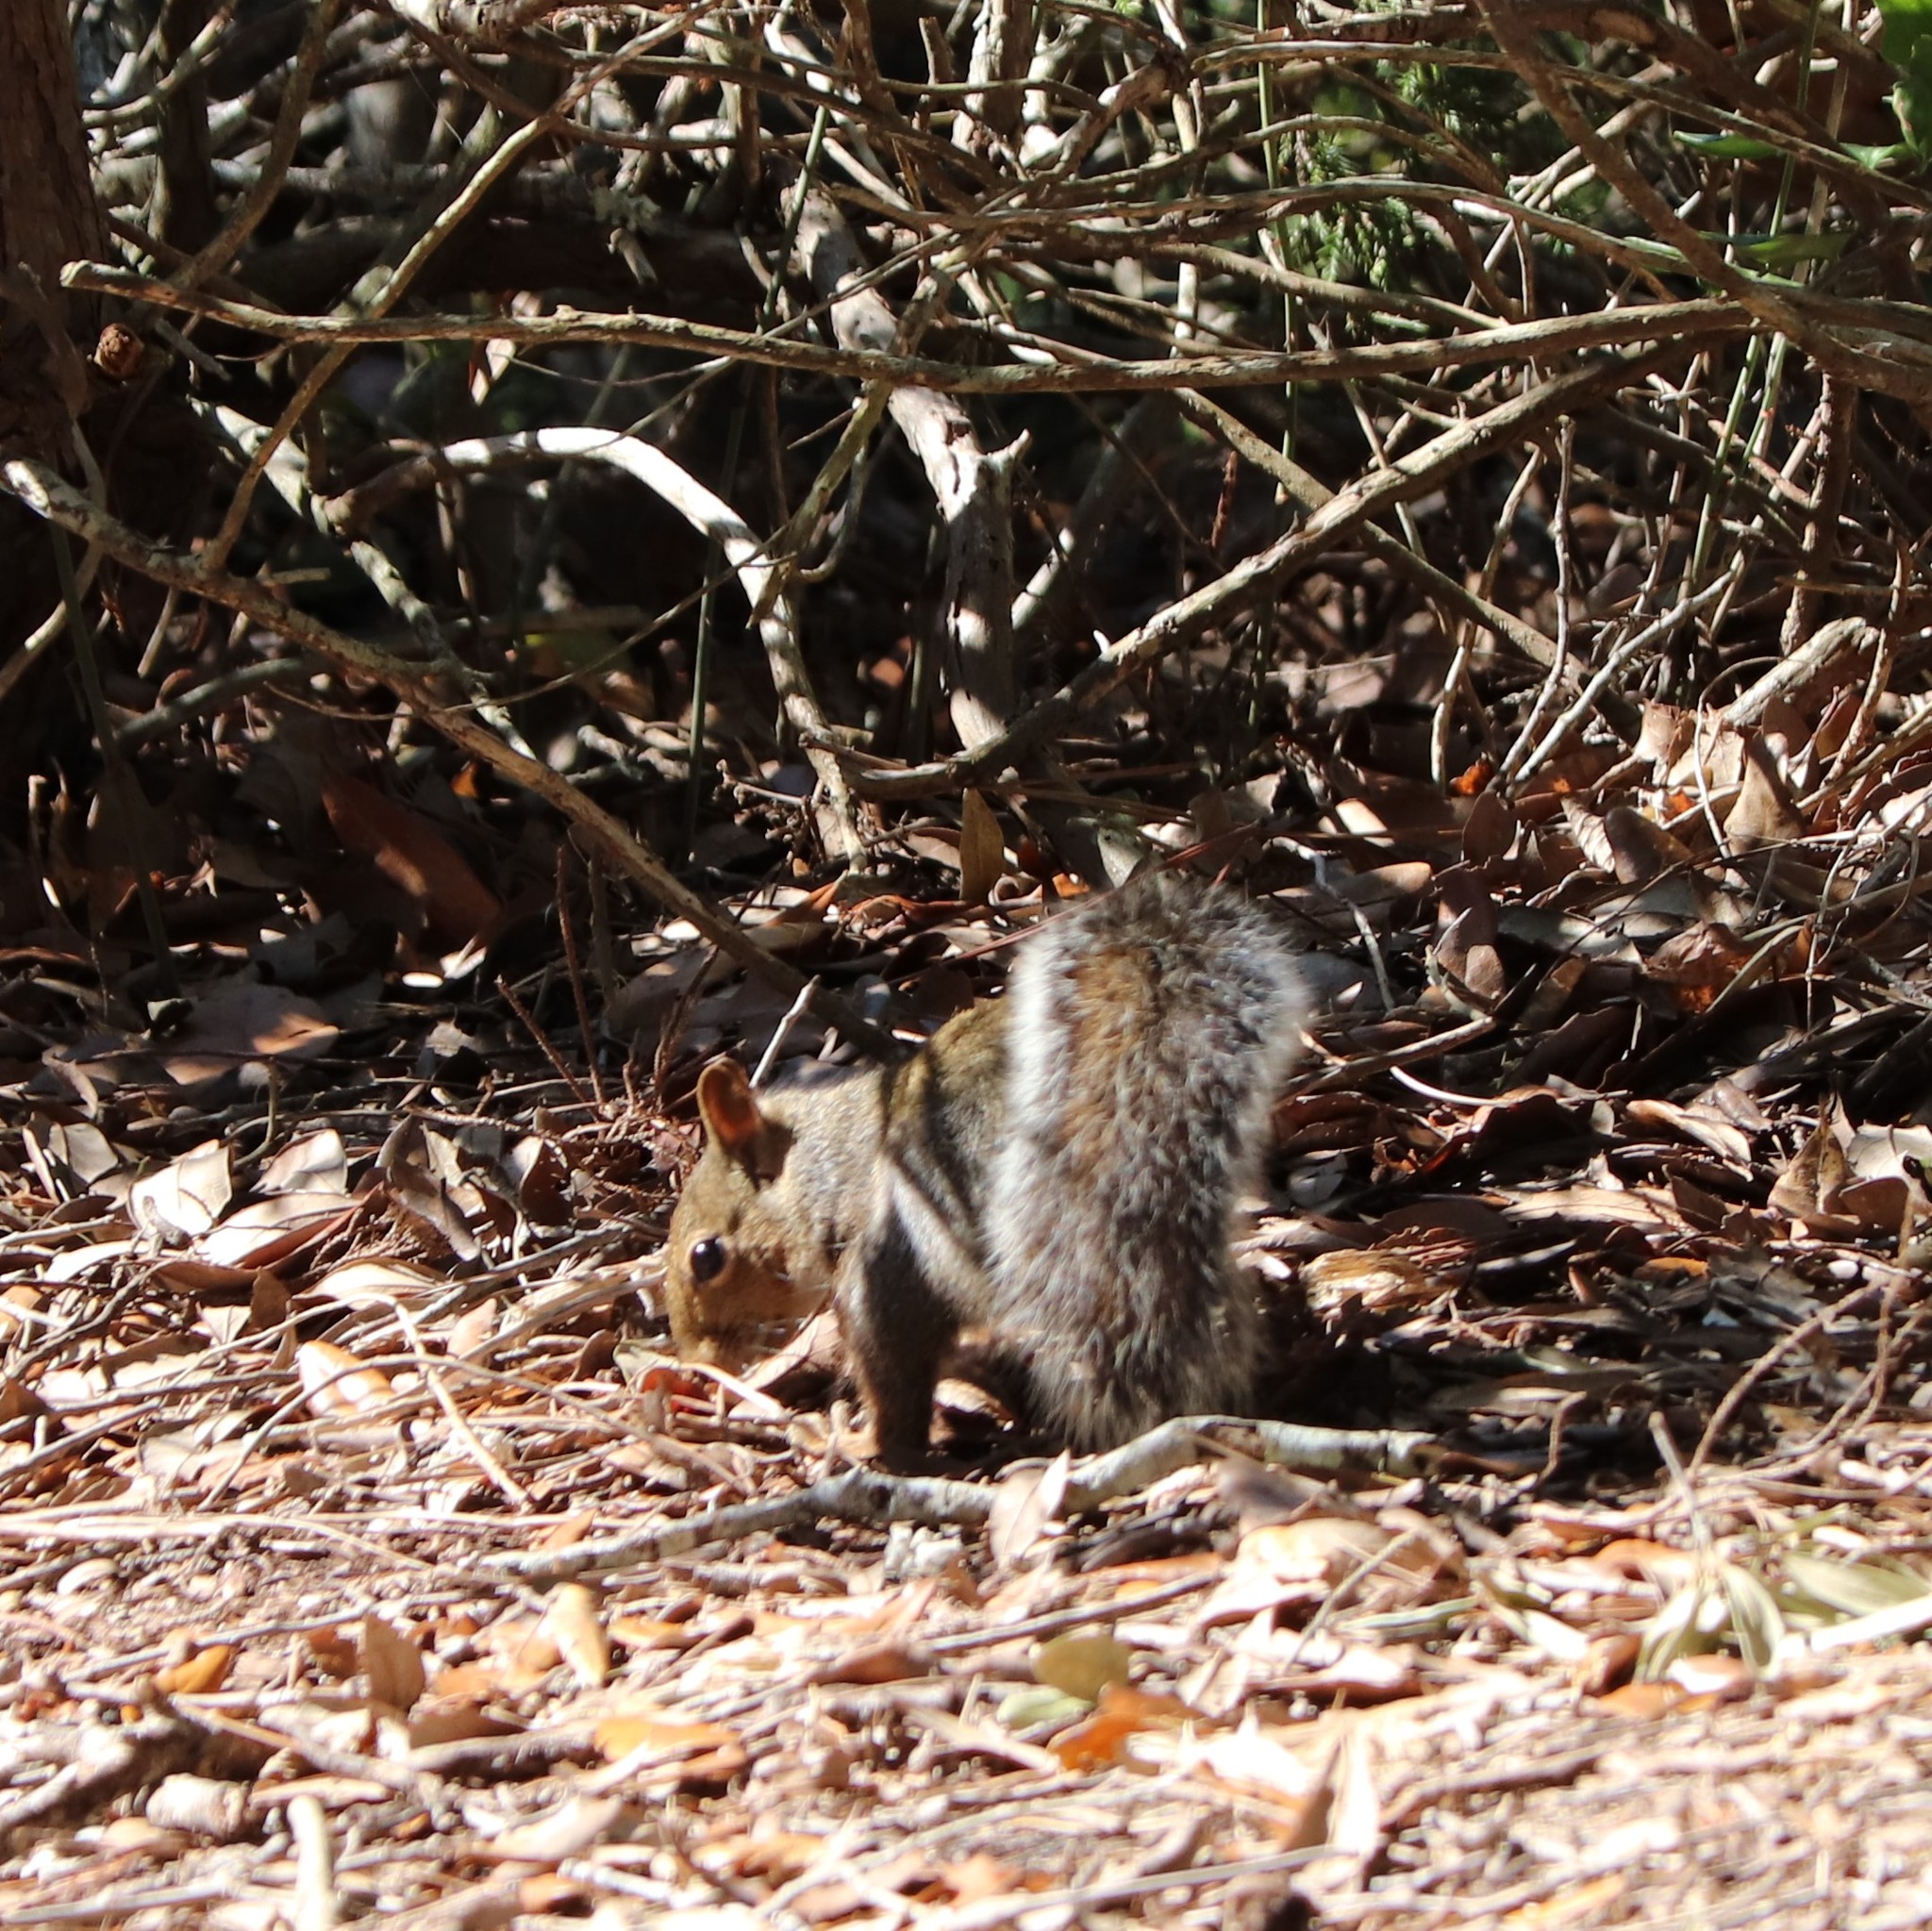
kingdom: Animalia
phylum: Chordata
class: Mammalia
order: Rodentia
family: Sciuridae
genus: Sciurus
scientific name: Sciurus carolinensis
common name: Eastern gray squirrel
